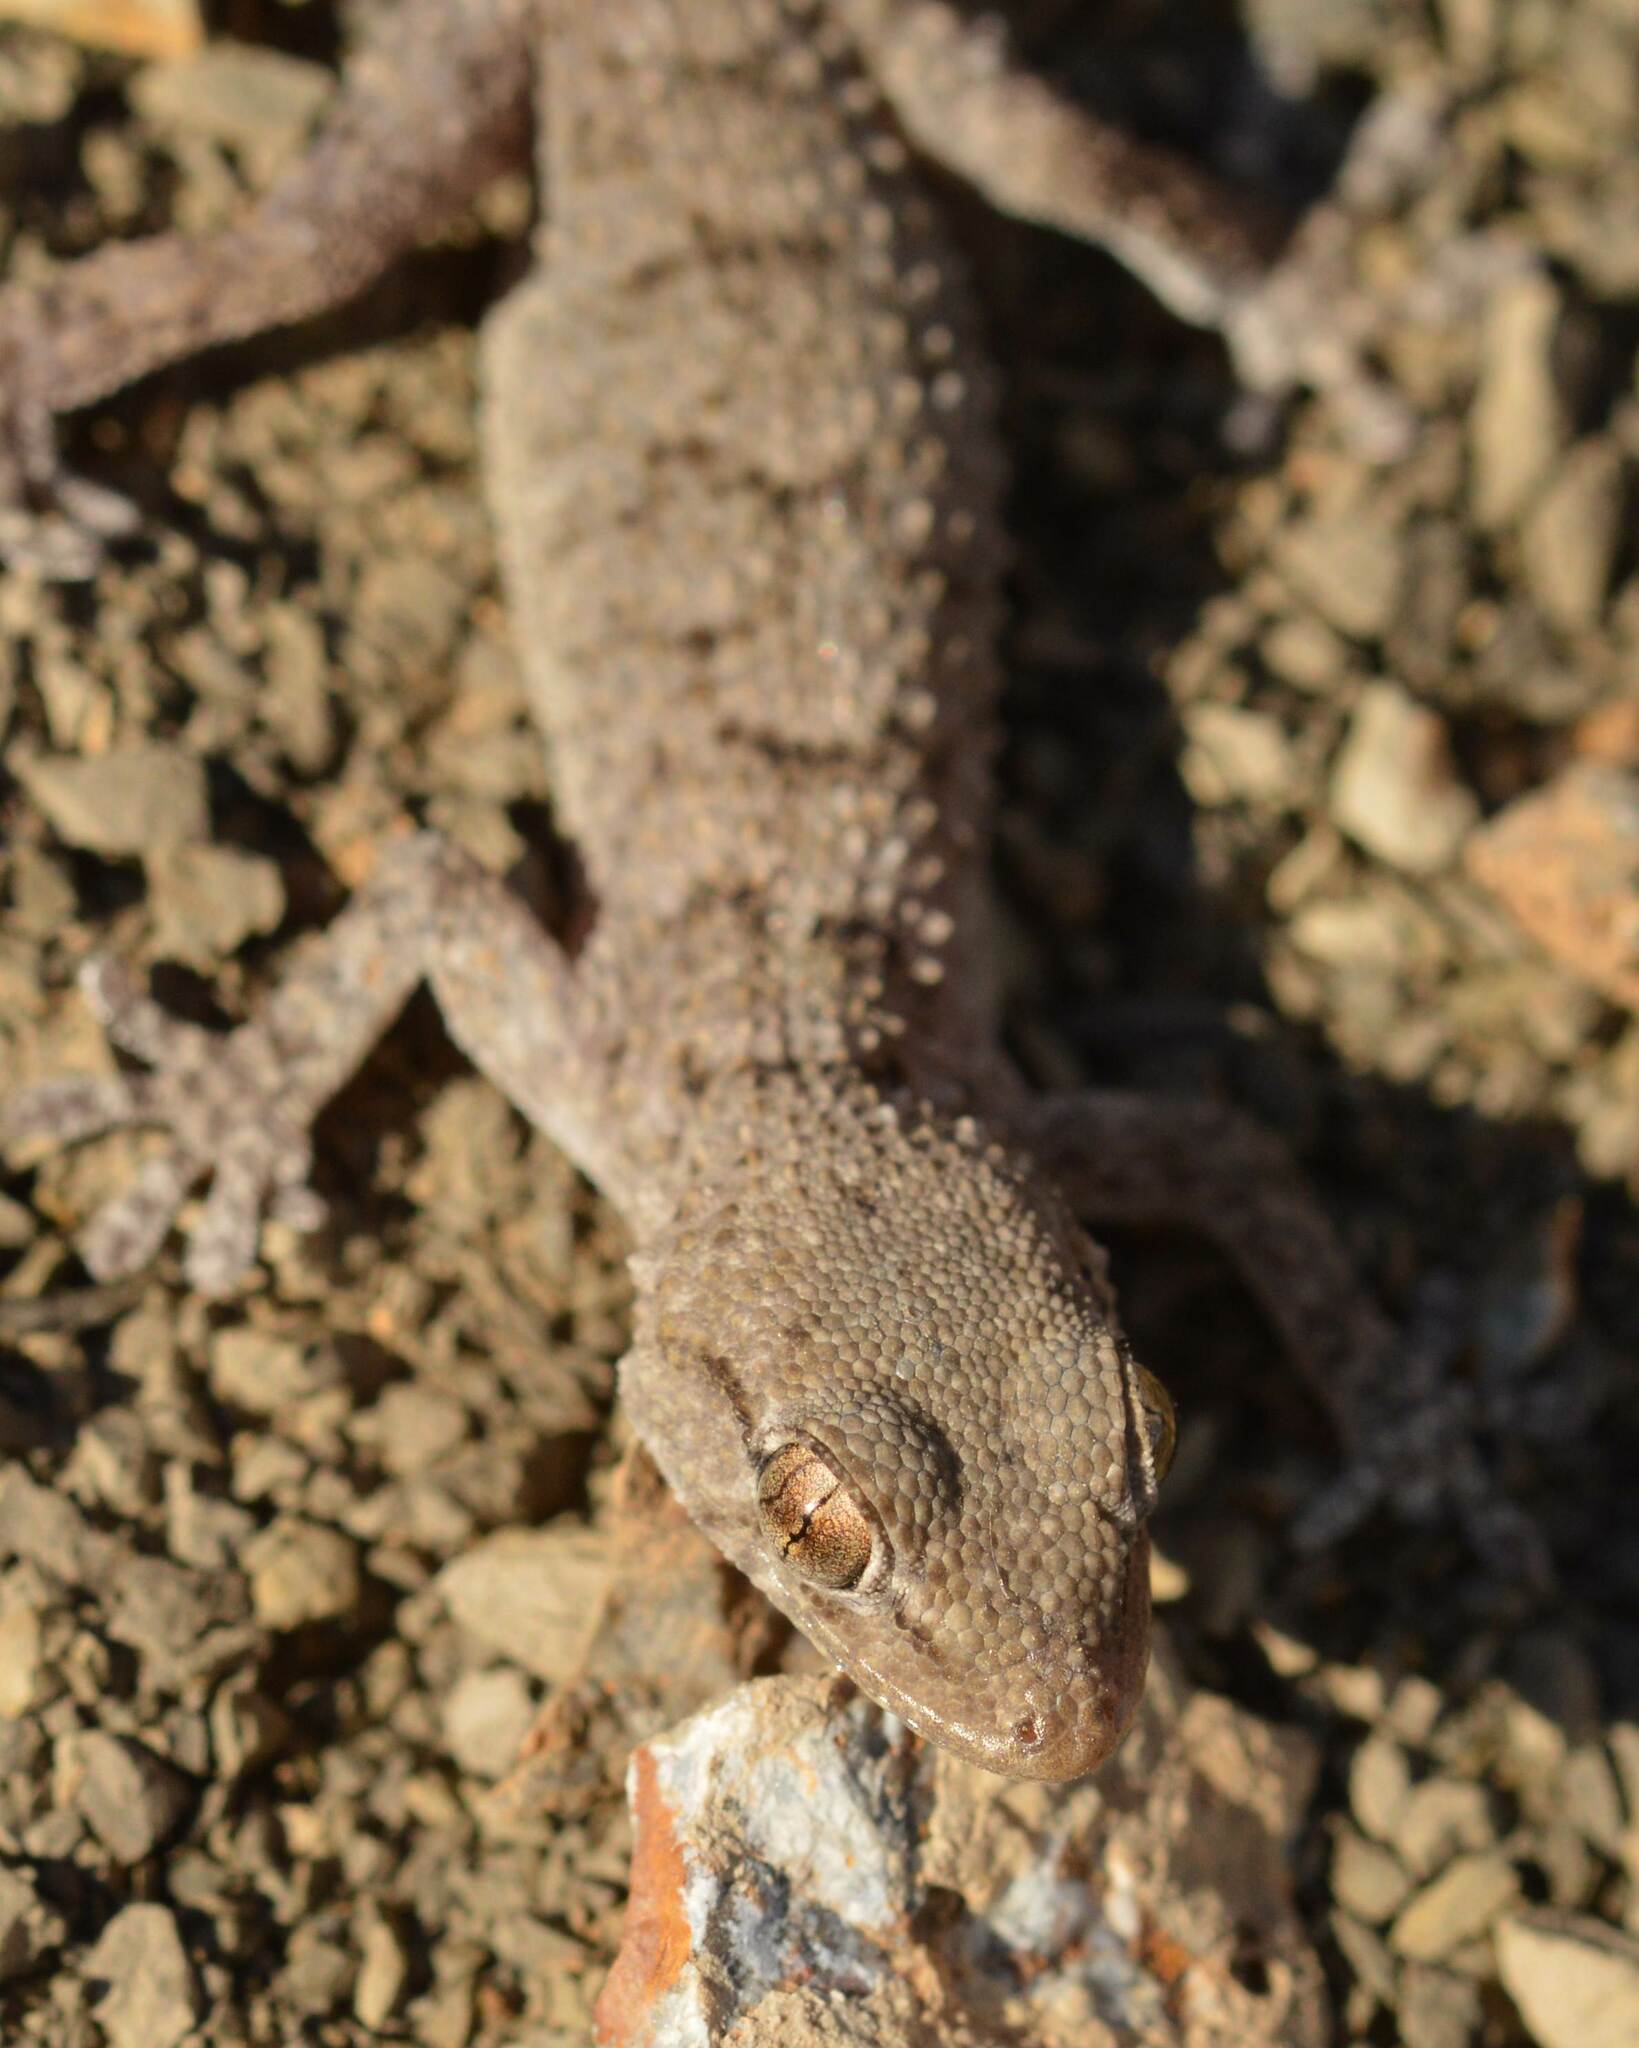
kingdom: Animalia
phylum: Chordata
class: Squamata
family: Phyllodactylidae
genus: Tarentola
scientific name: Tarentola mauritanica
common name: Moorish gecko
